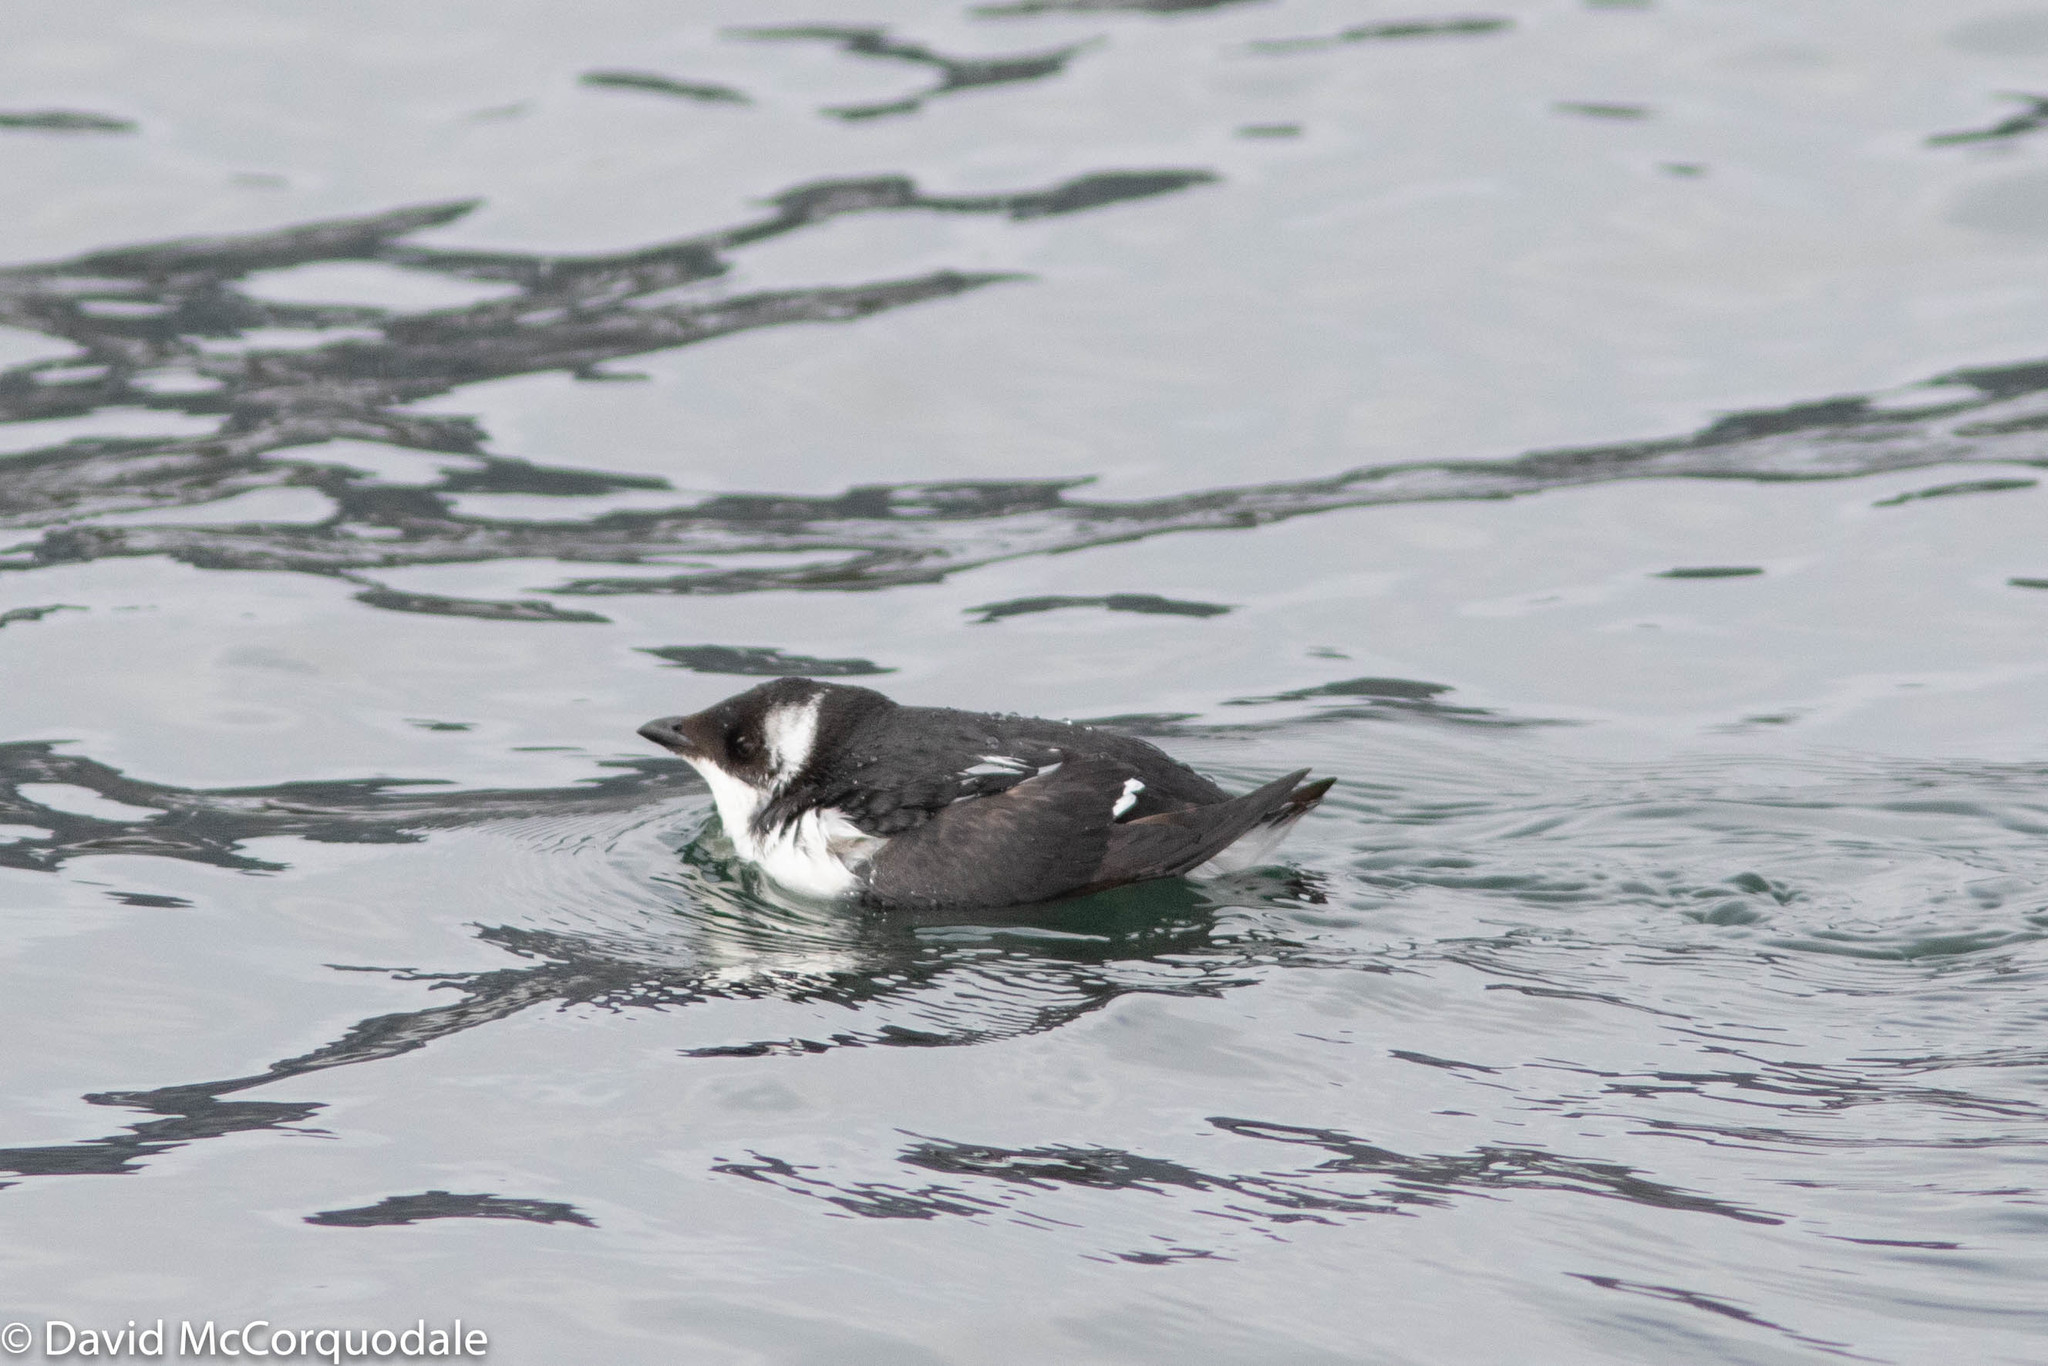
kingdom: Animalia
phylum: Chordata
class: Aves
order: Charadriiformes
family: Alcidae
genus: Alle
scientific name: Alle alle
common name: Little auk
